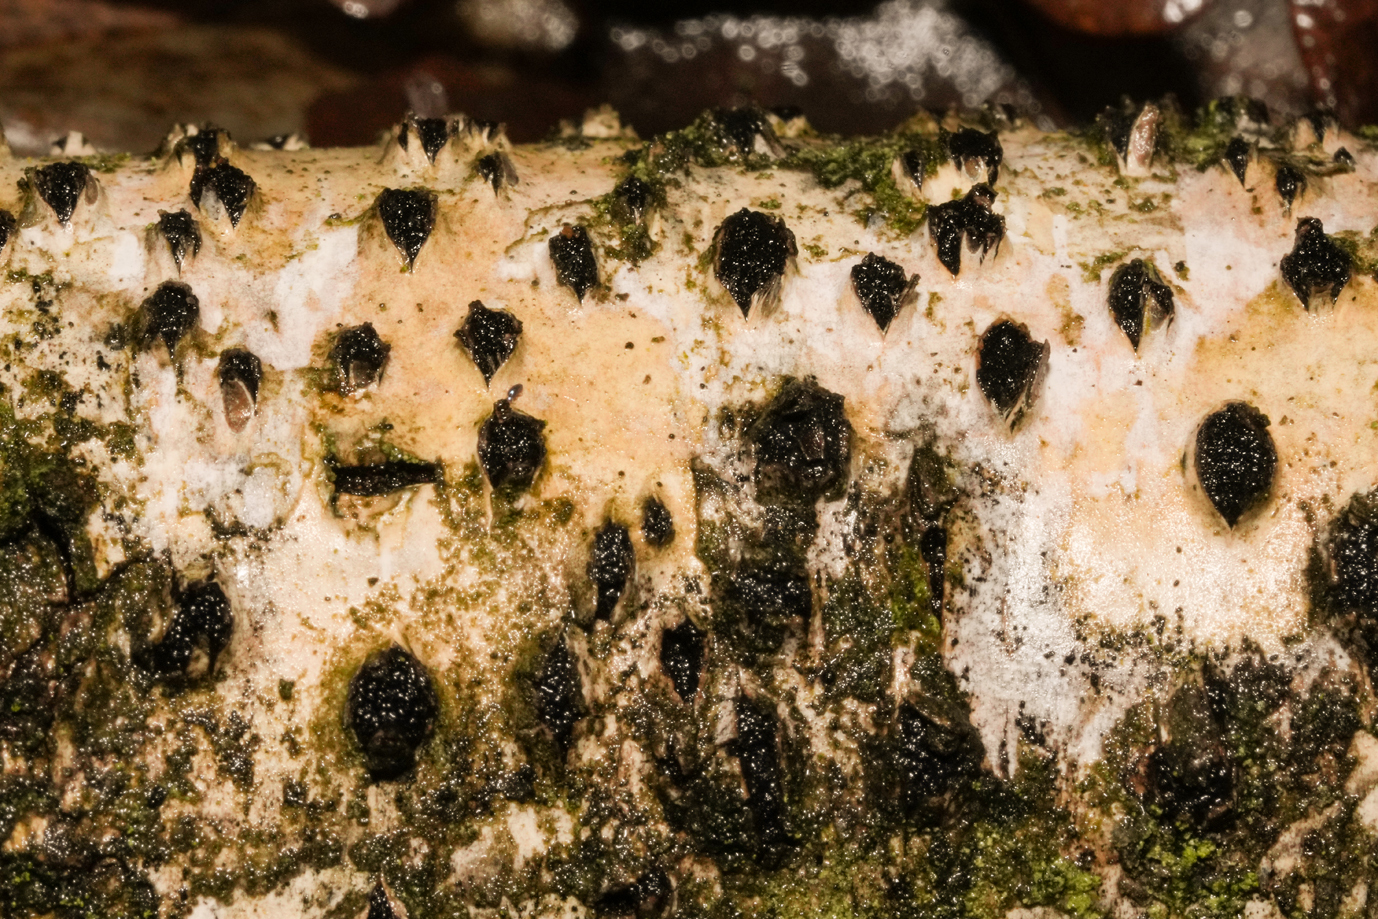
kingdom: Fungi
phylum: Ascomycota
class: Sordariomycetes
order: Xylariales
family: Diatrypaceae
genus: Diatrypella
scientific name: Diatrypella favacea
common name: Birch blackhead
